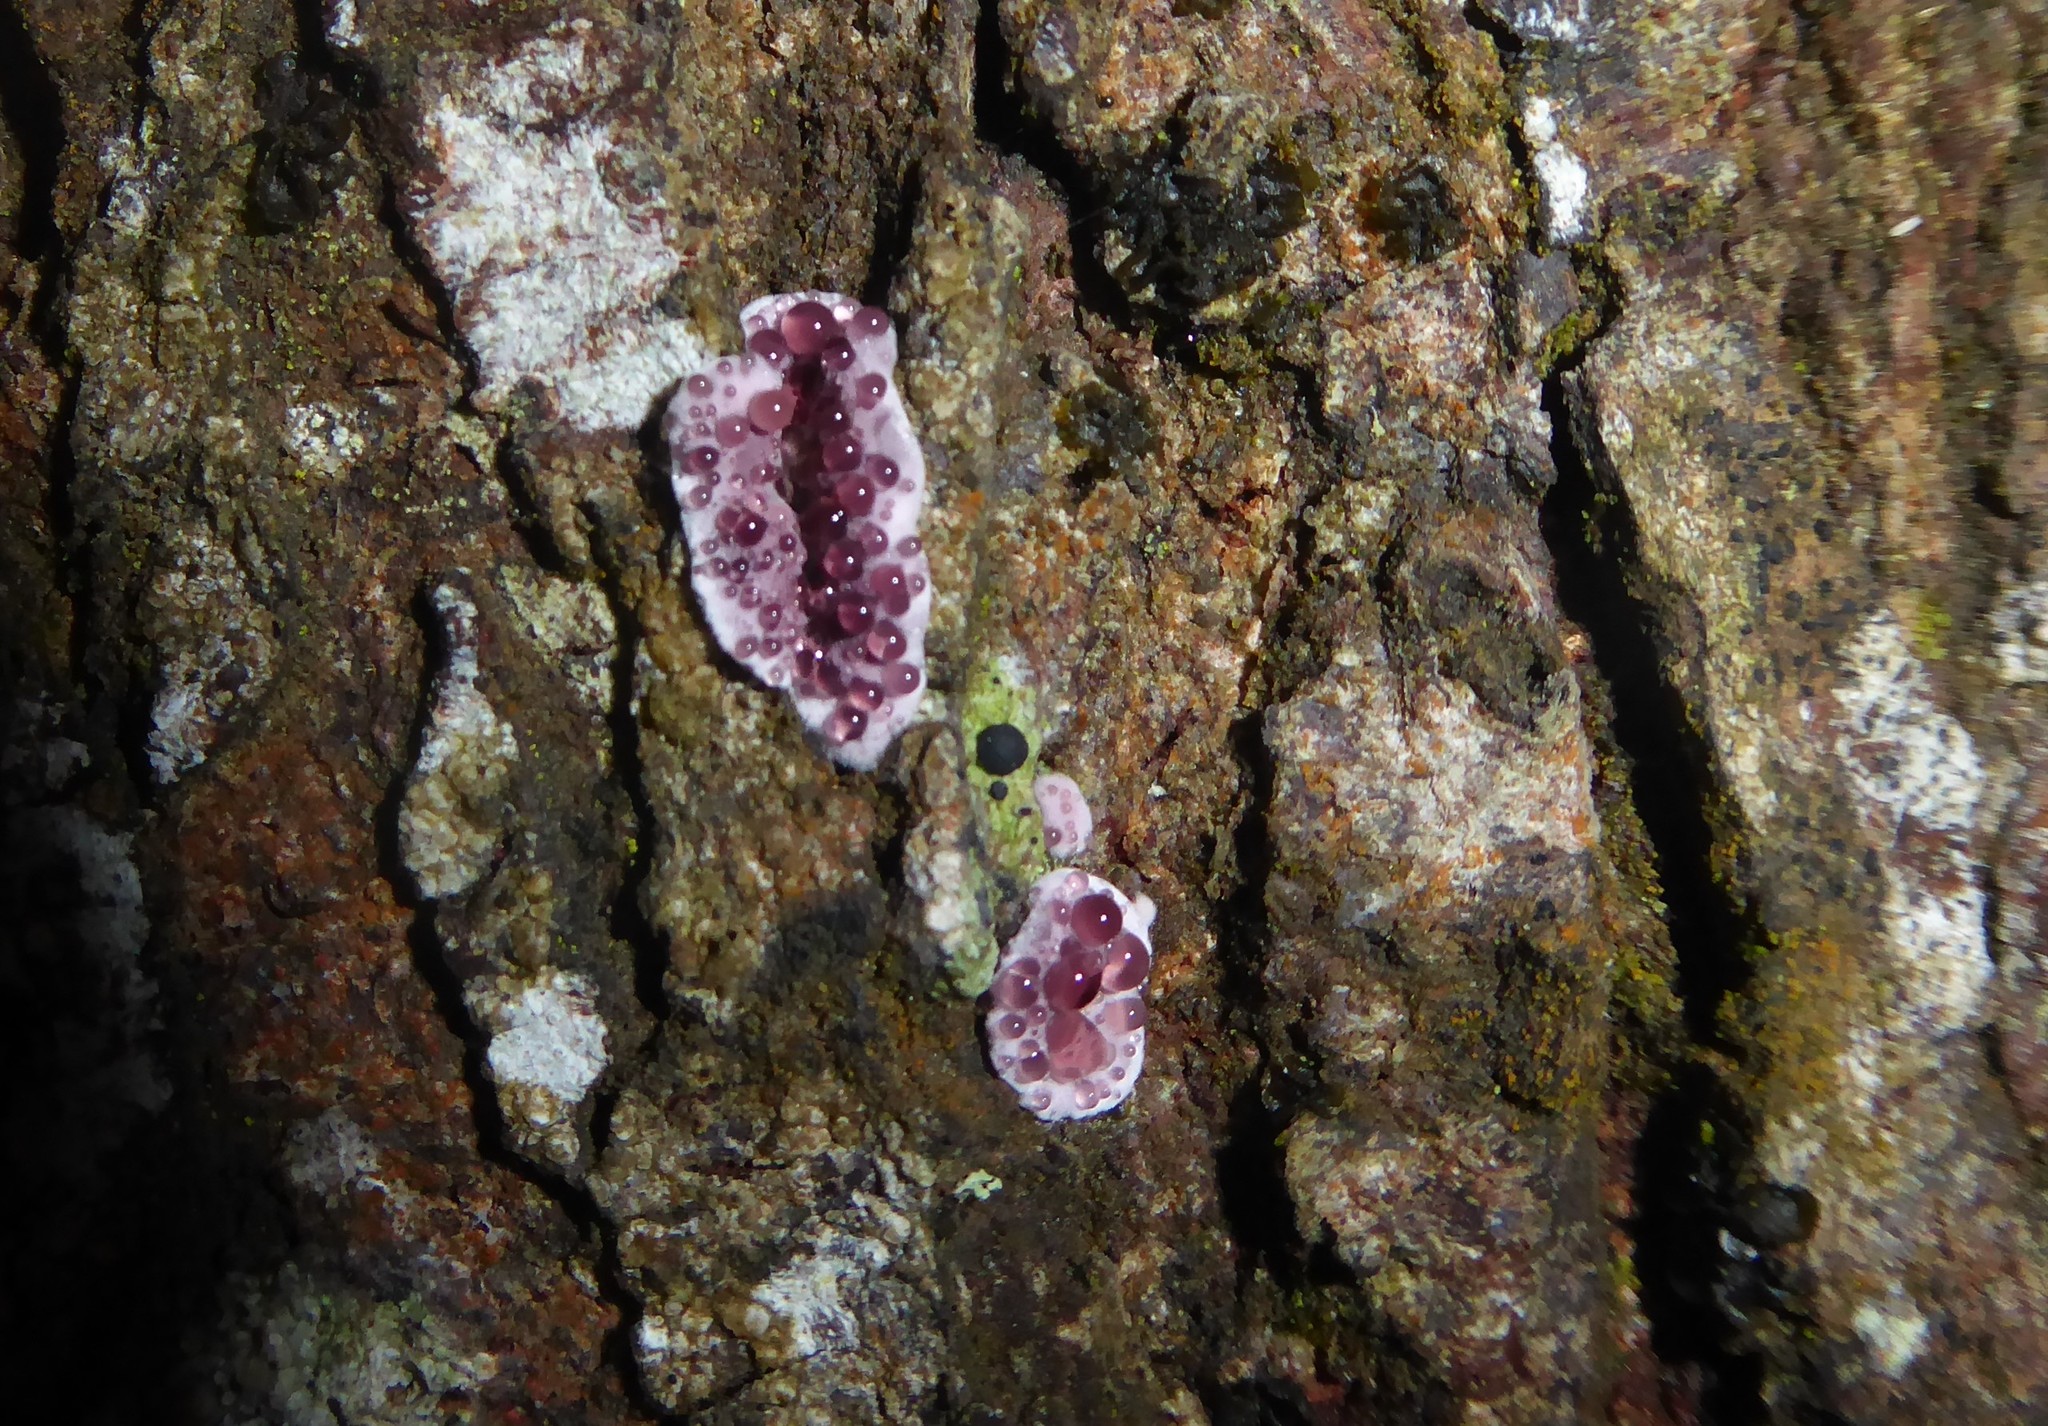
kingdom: Fungi
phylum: Basidiomycota
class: Agaricomycetes
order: Agaricales
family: Cyphellaceae
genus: Chondrostereum
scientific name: Chondrostereum purpureum
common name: Silver leaf disease
